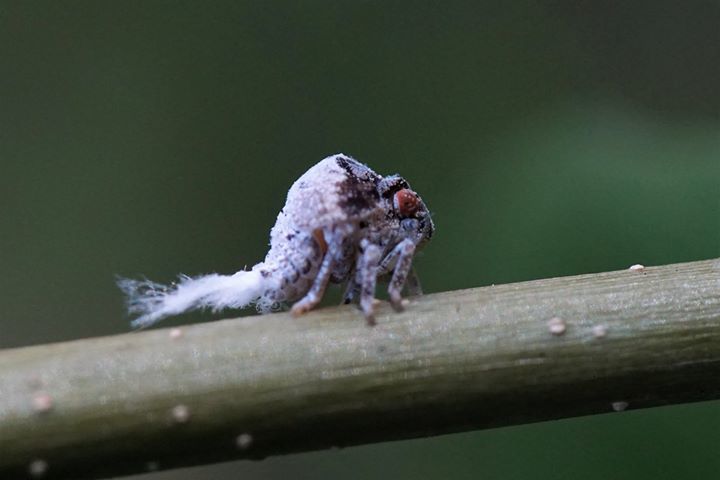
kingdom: Animalia
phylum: Arthropoda
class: Insecta
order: Hemiptera
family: Acanaloniidae
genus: Acanalonia
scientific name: Acanalonia servillei
